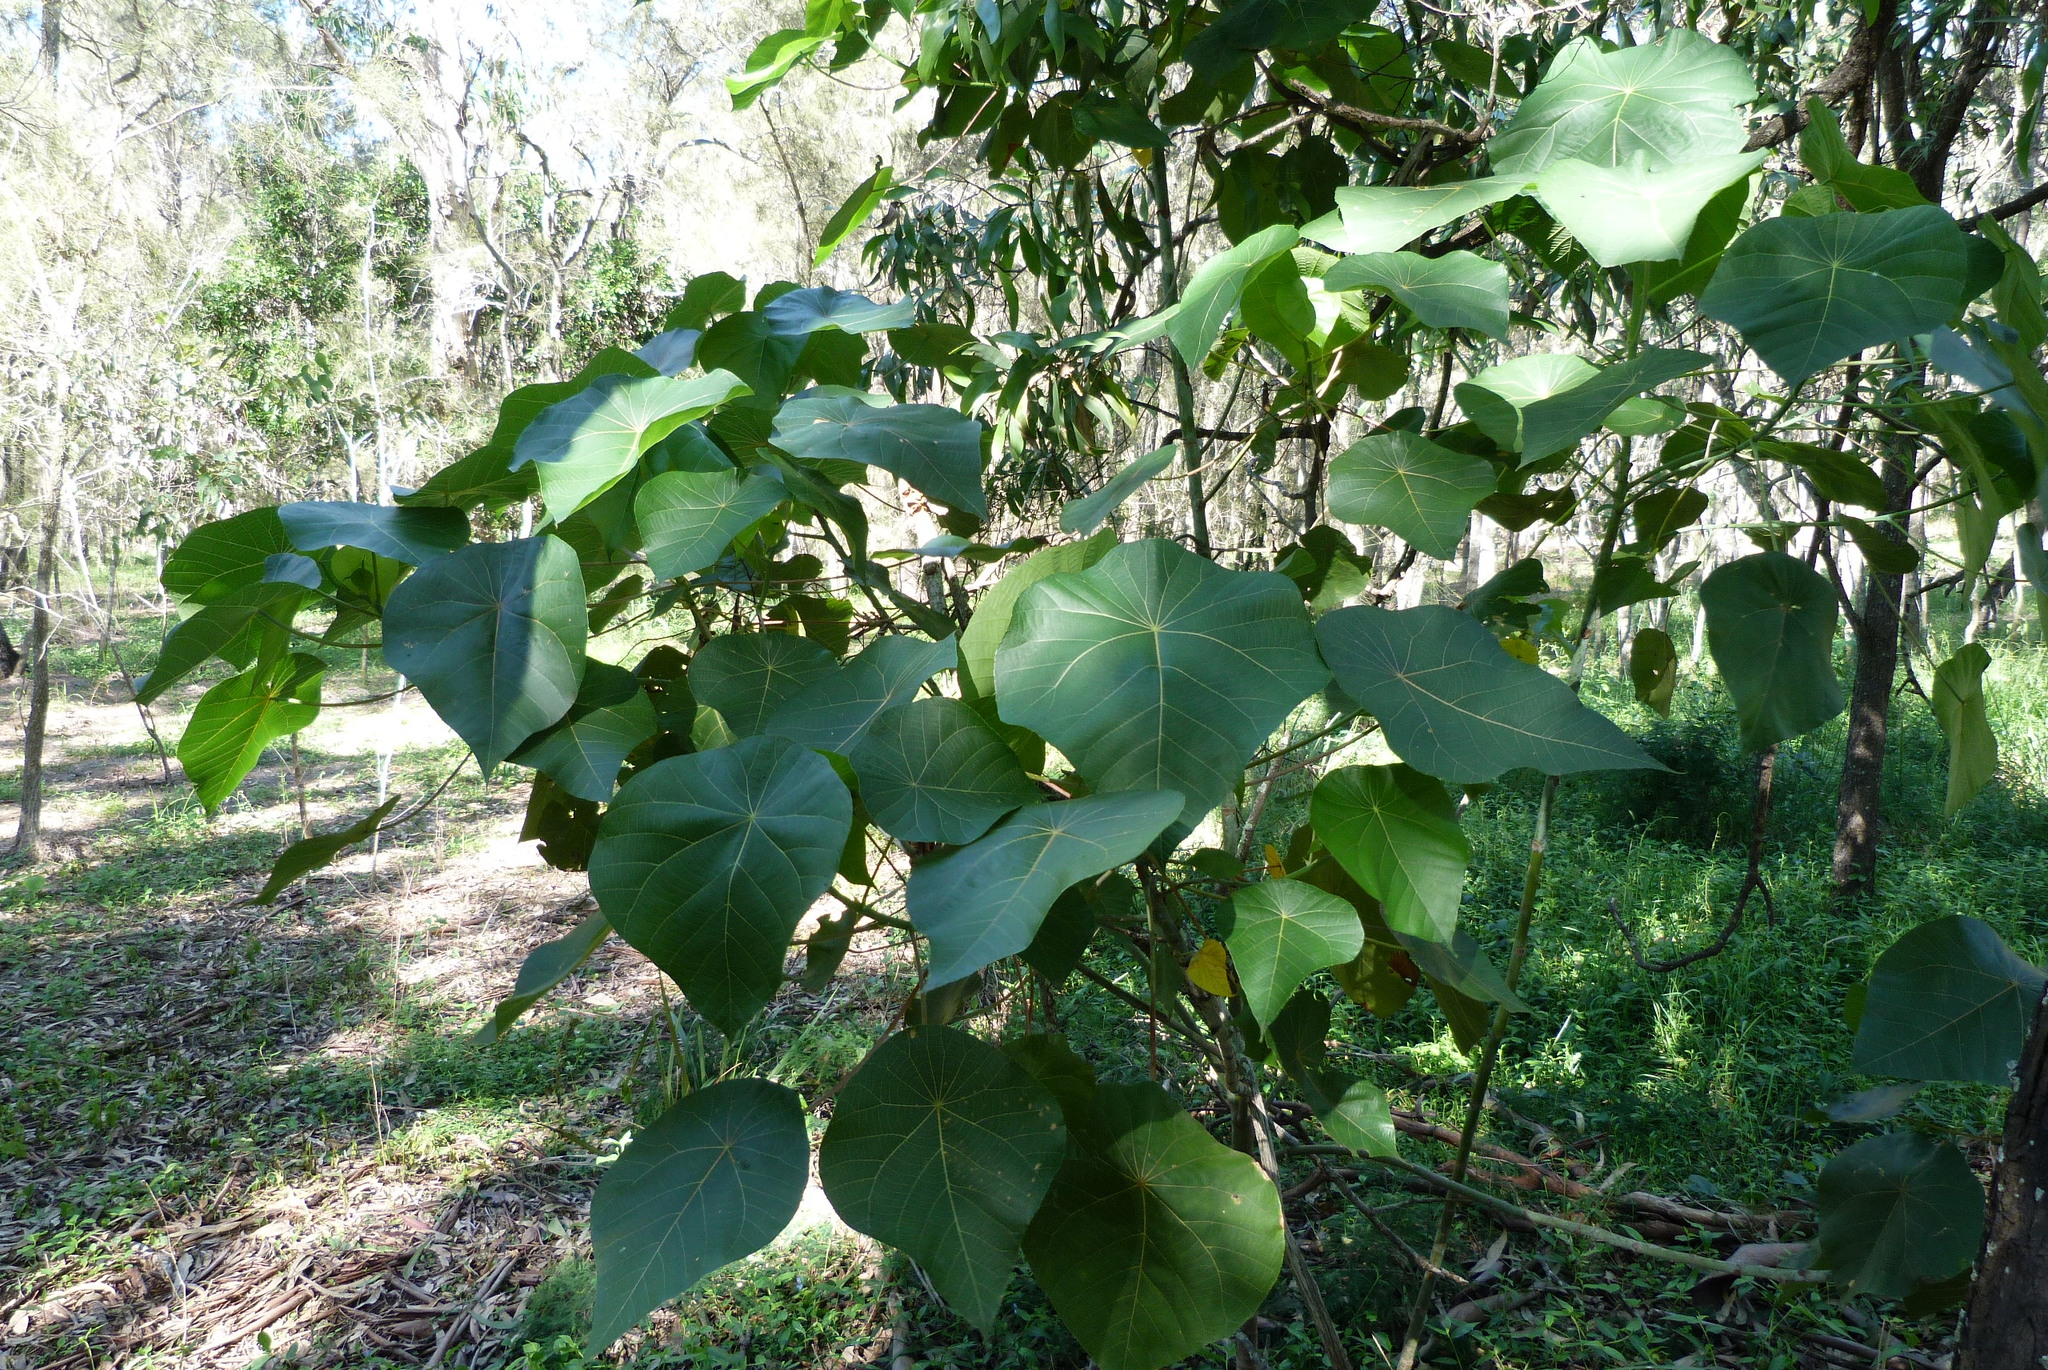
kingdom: Plantae
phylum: Tracheophyta
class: Magnoliopsida
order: Malpighiales
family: Euphorbiaceae
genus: Macaranga
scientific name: Macaranga tanarius
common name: Parasol leaf tree
